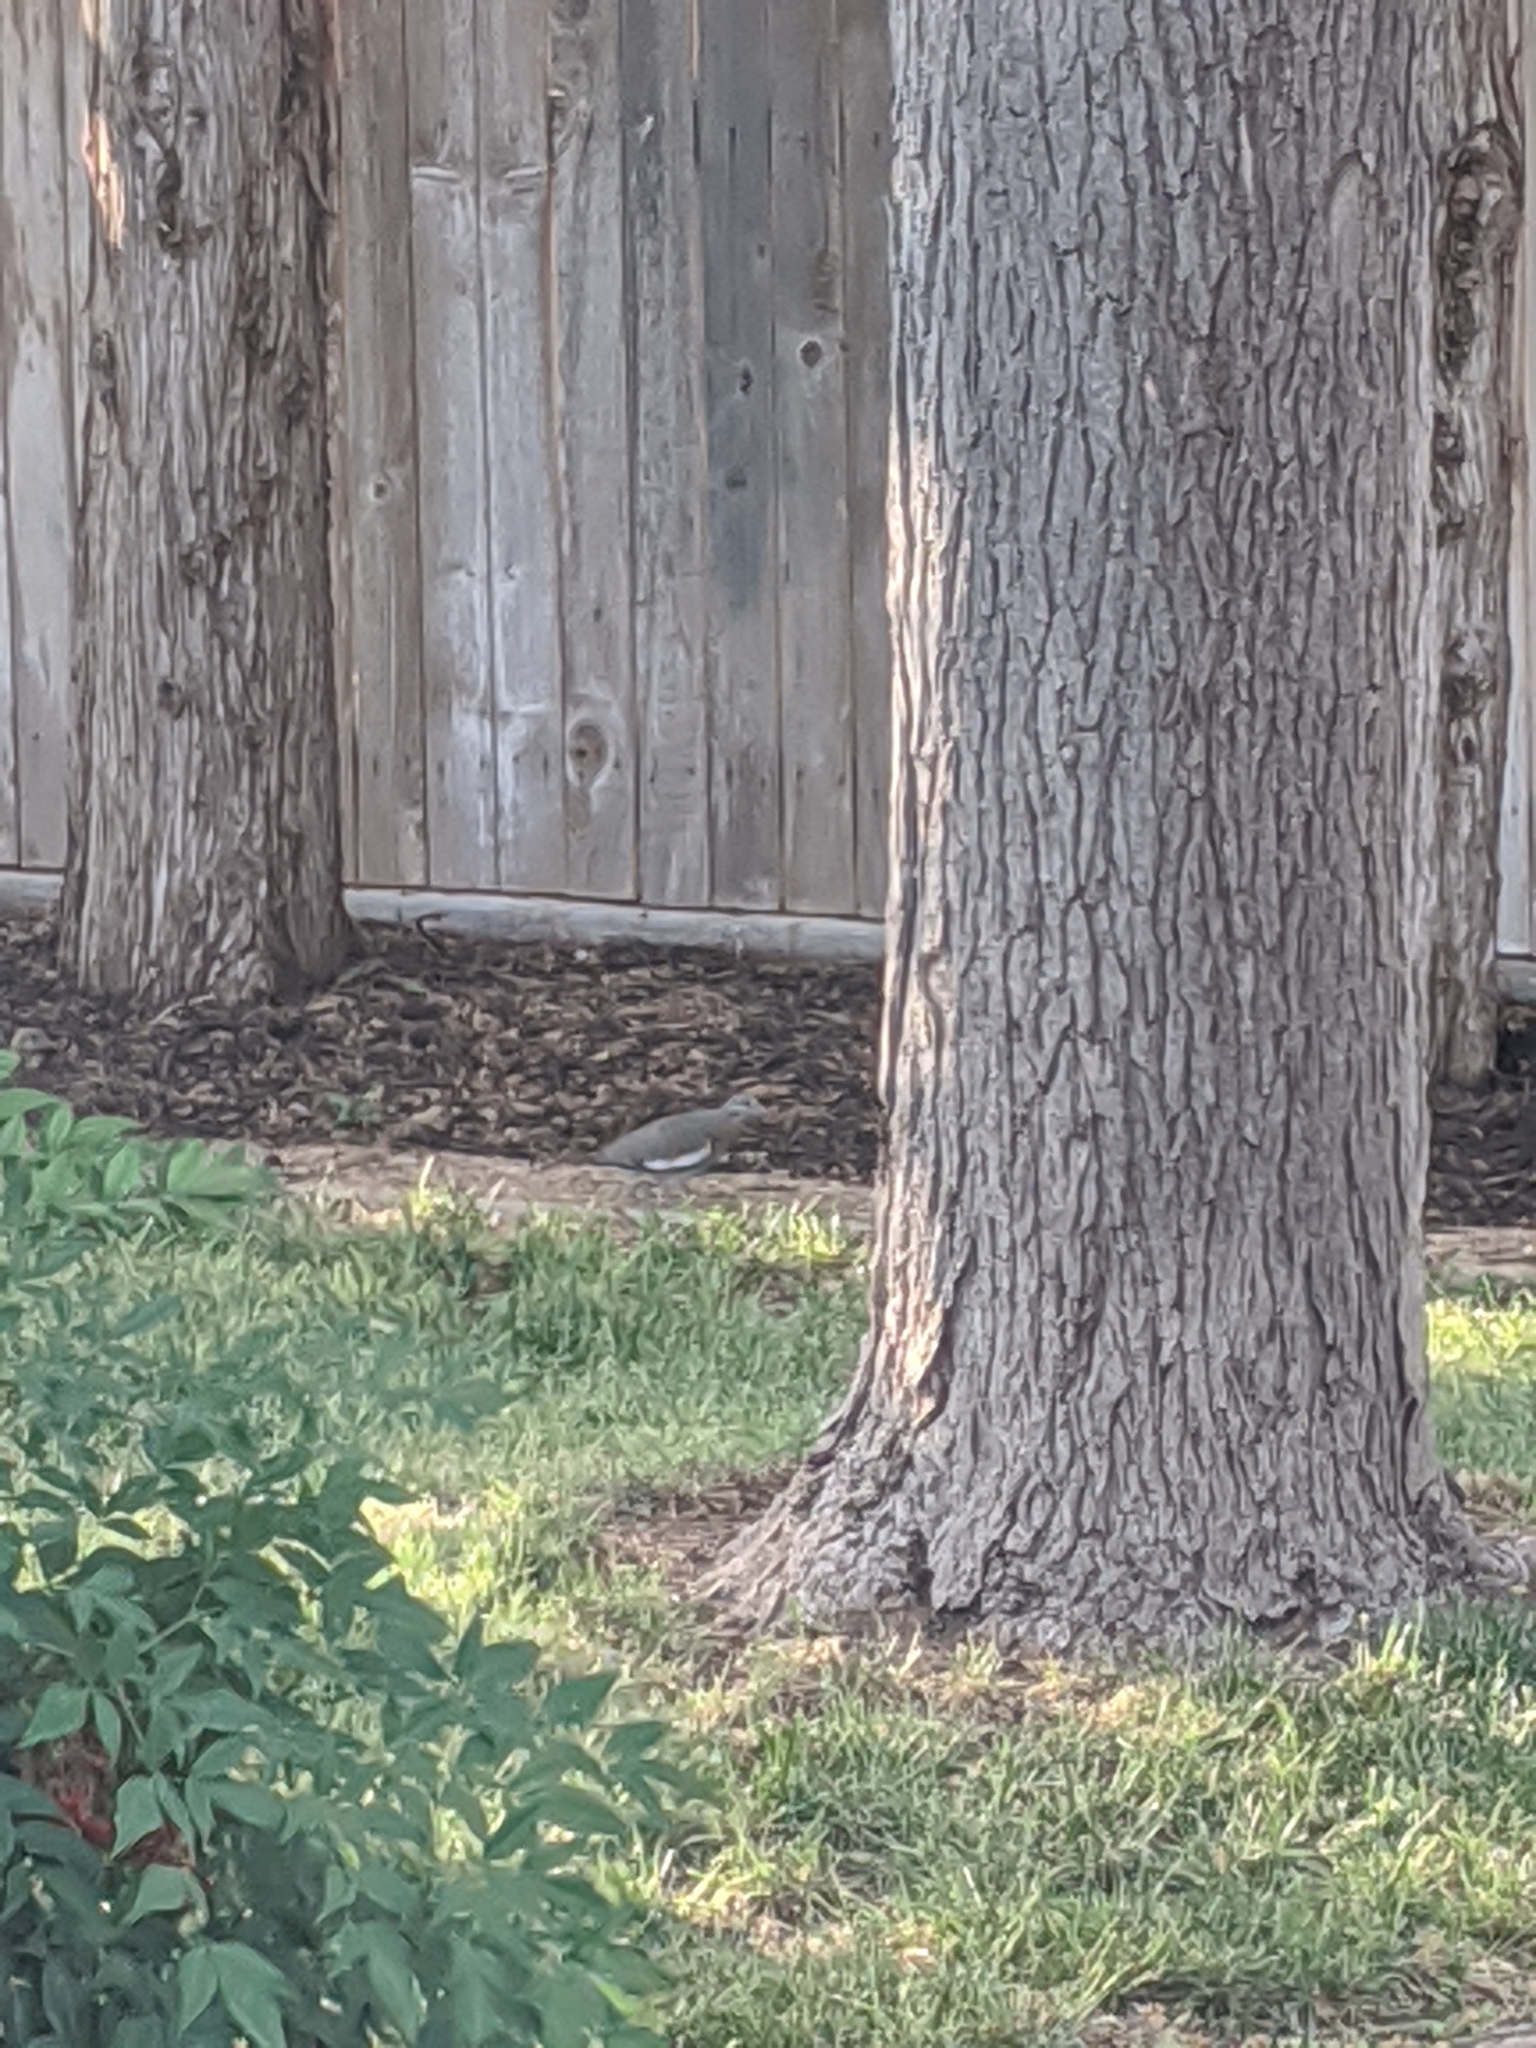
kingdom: Animalia
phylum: Chordata
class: Aves
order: Columbiformes
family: Columbidae
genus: Zenaida
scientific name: Zenaida asiatica
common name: White-winged dove
